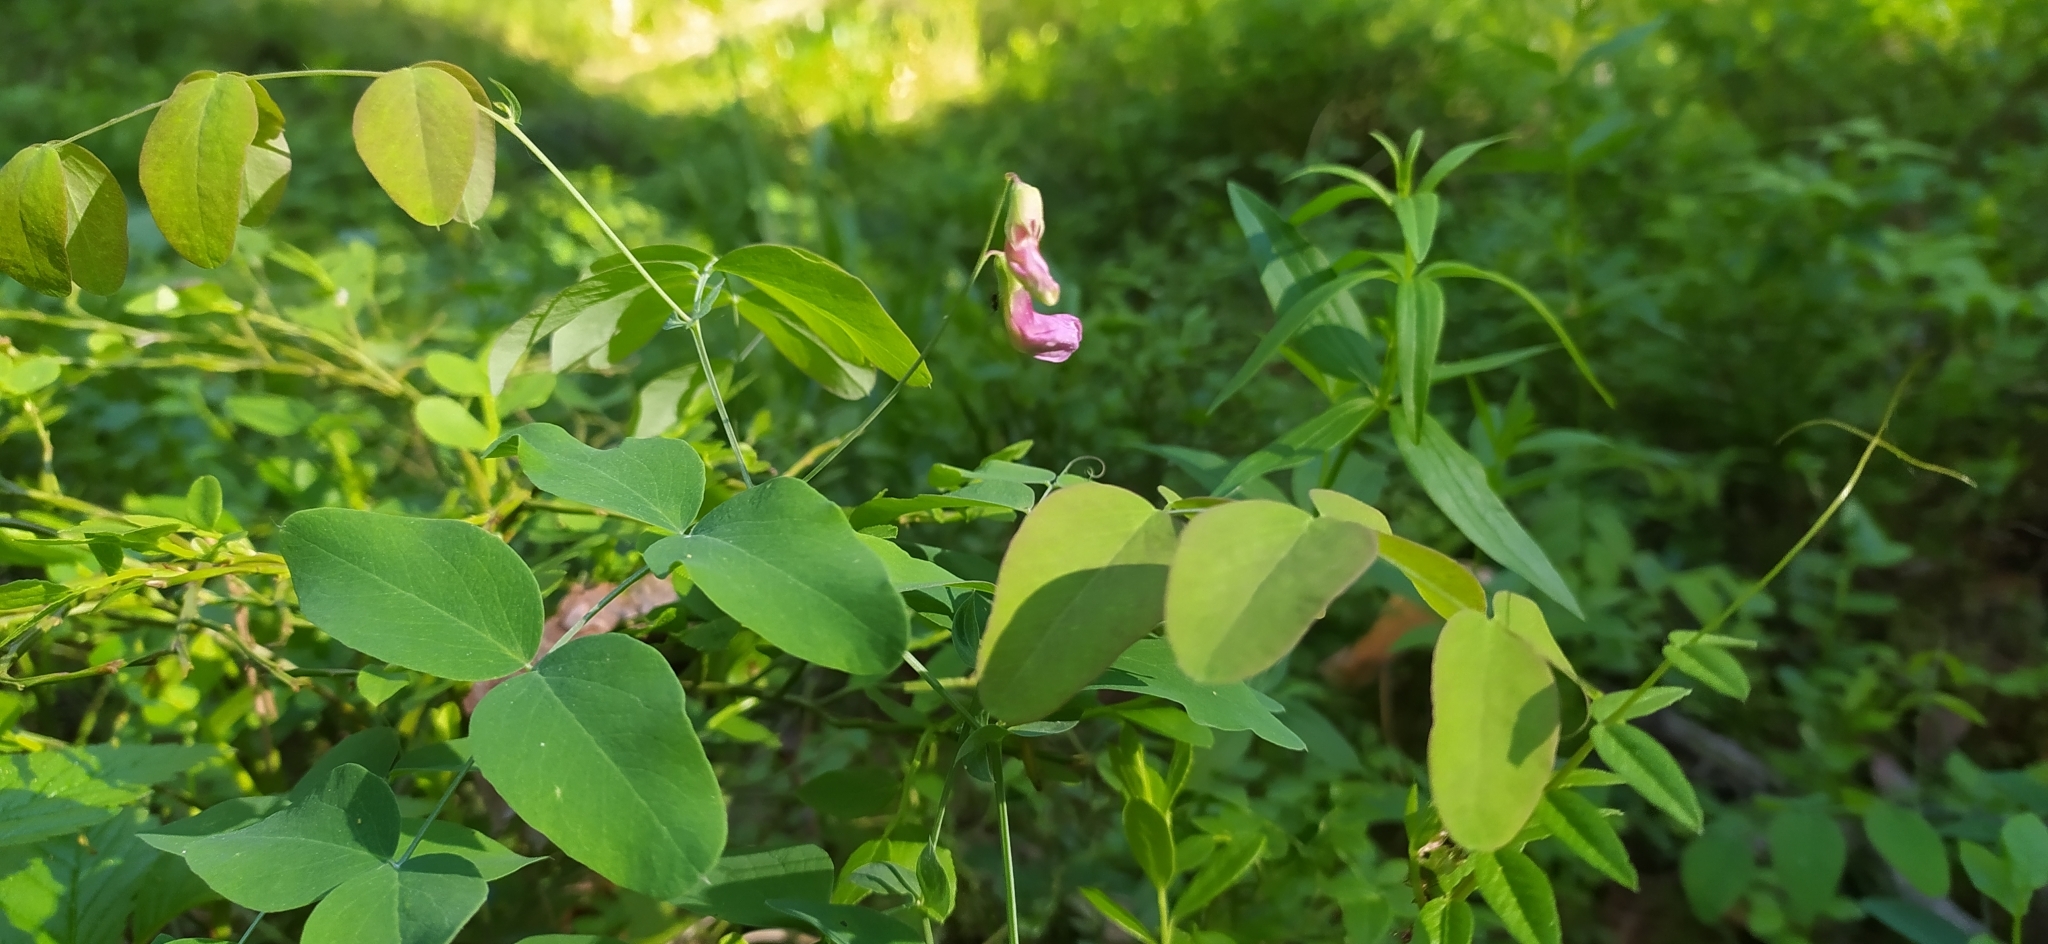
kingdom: Plantae
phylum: Tracheophyta
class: Magnoliopsida
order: Fabales
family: Fabaceae
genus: Lathyrus
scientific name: Lathyrus humilis
